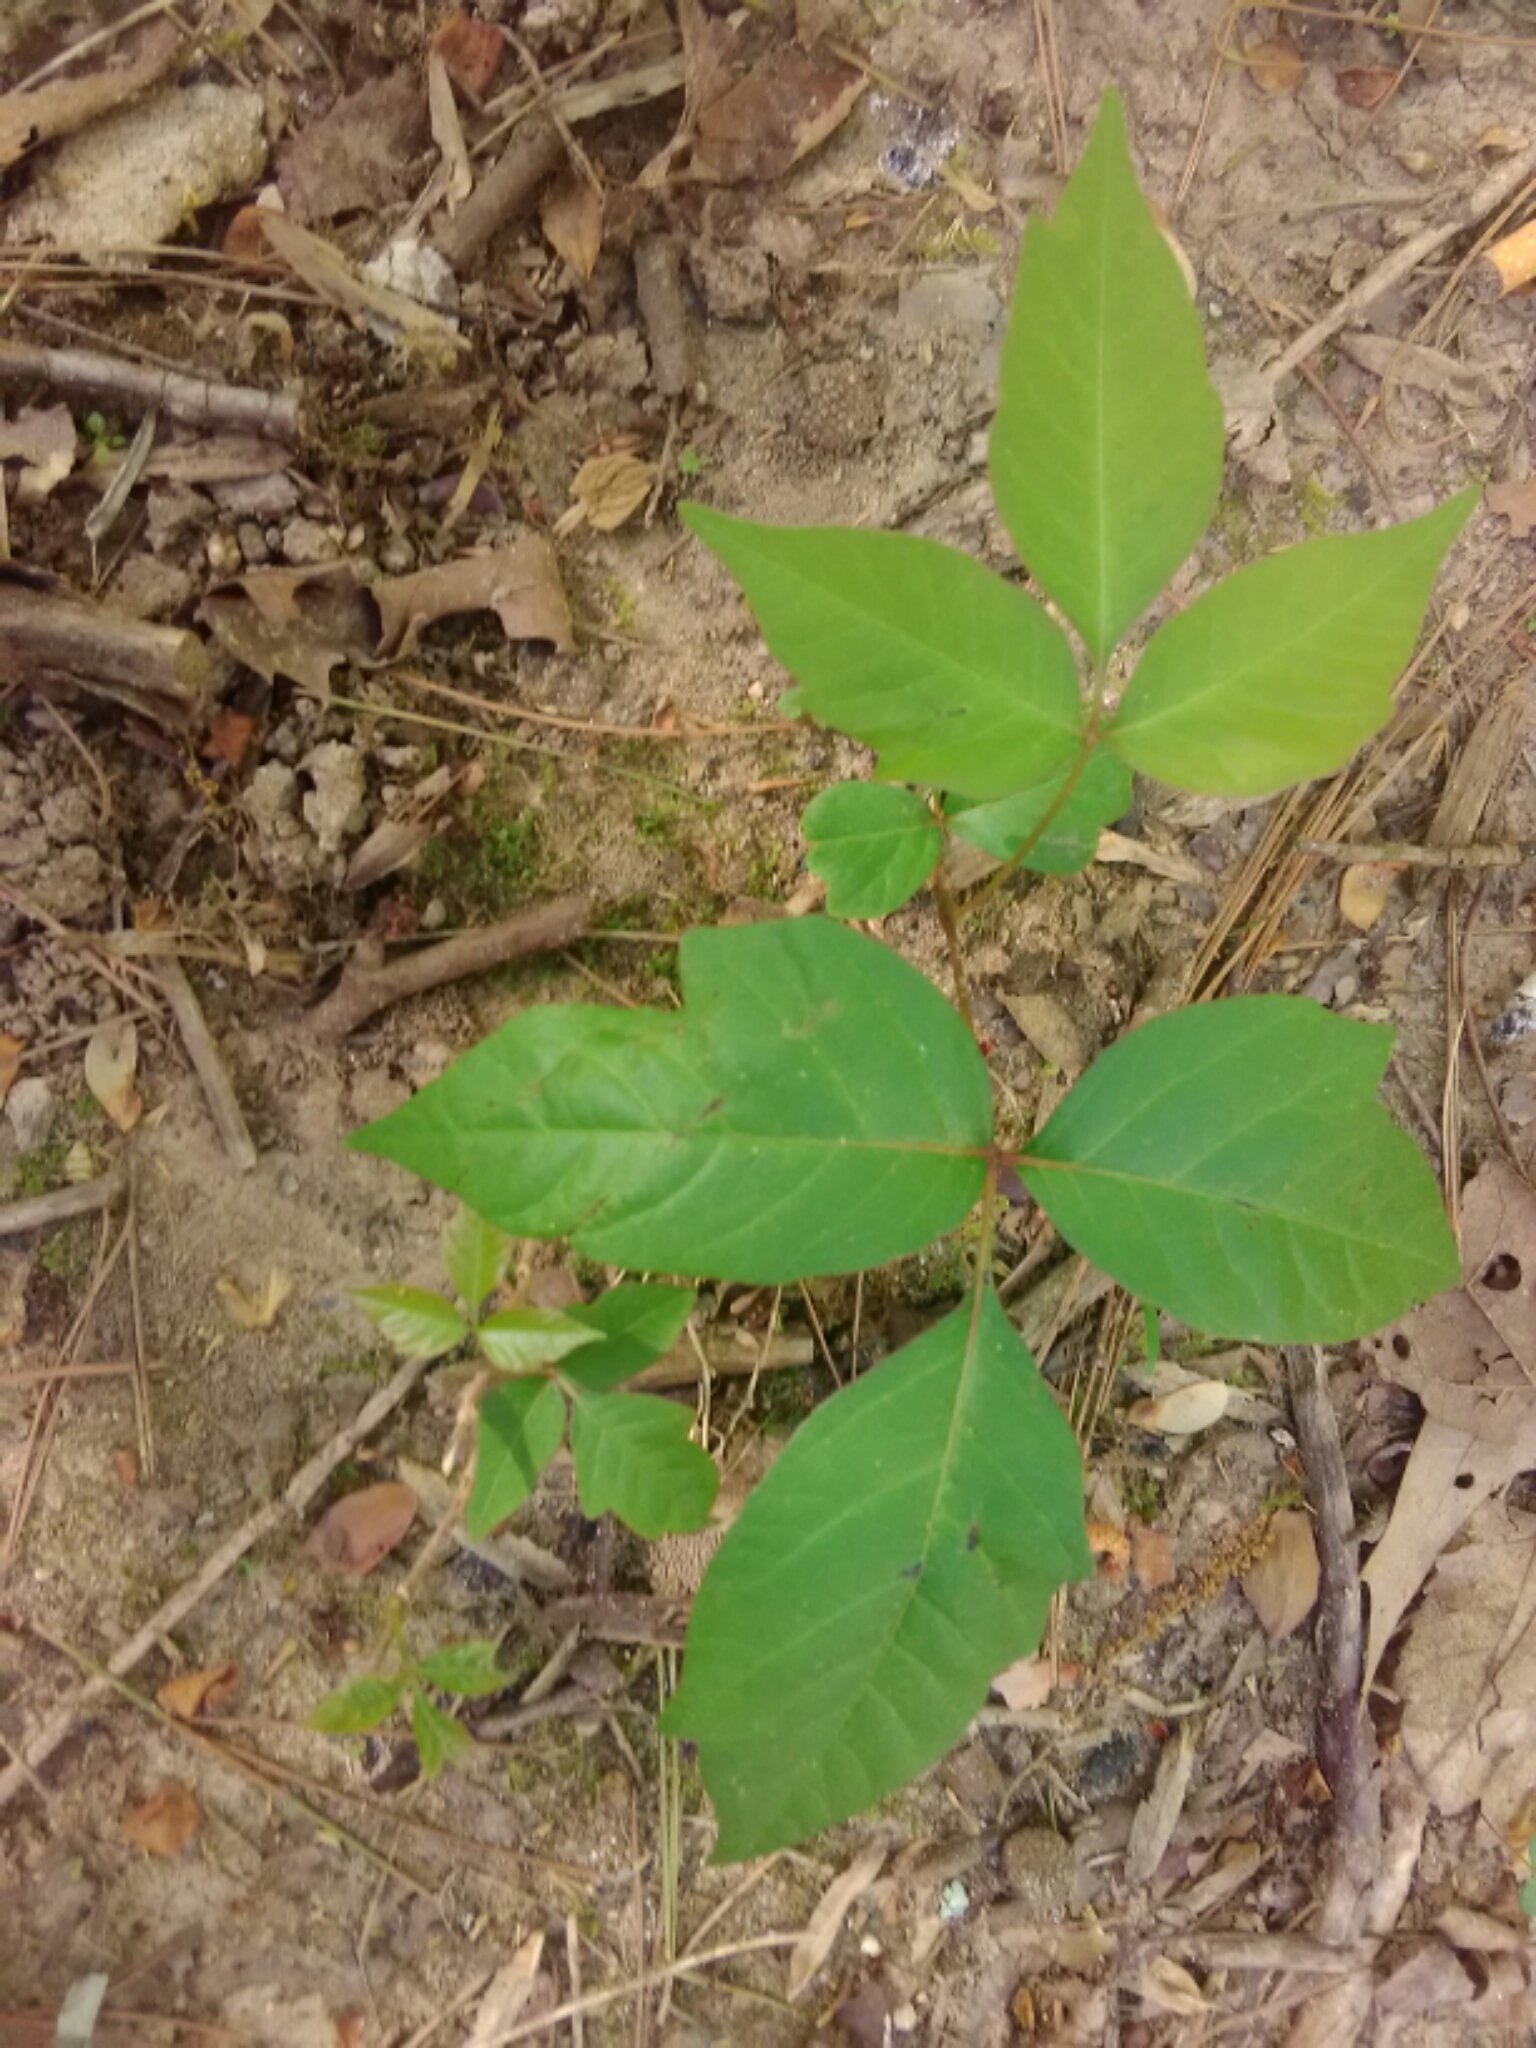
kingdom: Plantae
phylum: Tracheophyta
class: Magnoliopsida
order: Sapindales
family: Anacardiaceae
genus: Toxicodendron
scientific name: Toxicodendron radicans
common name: Poison ivy
